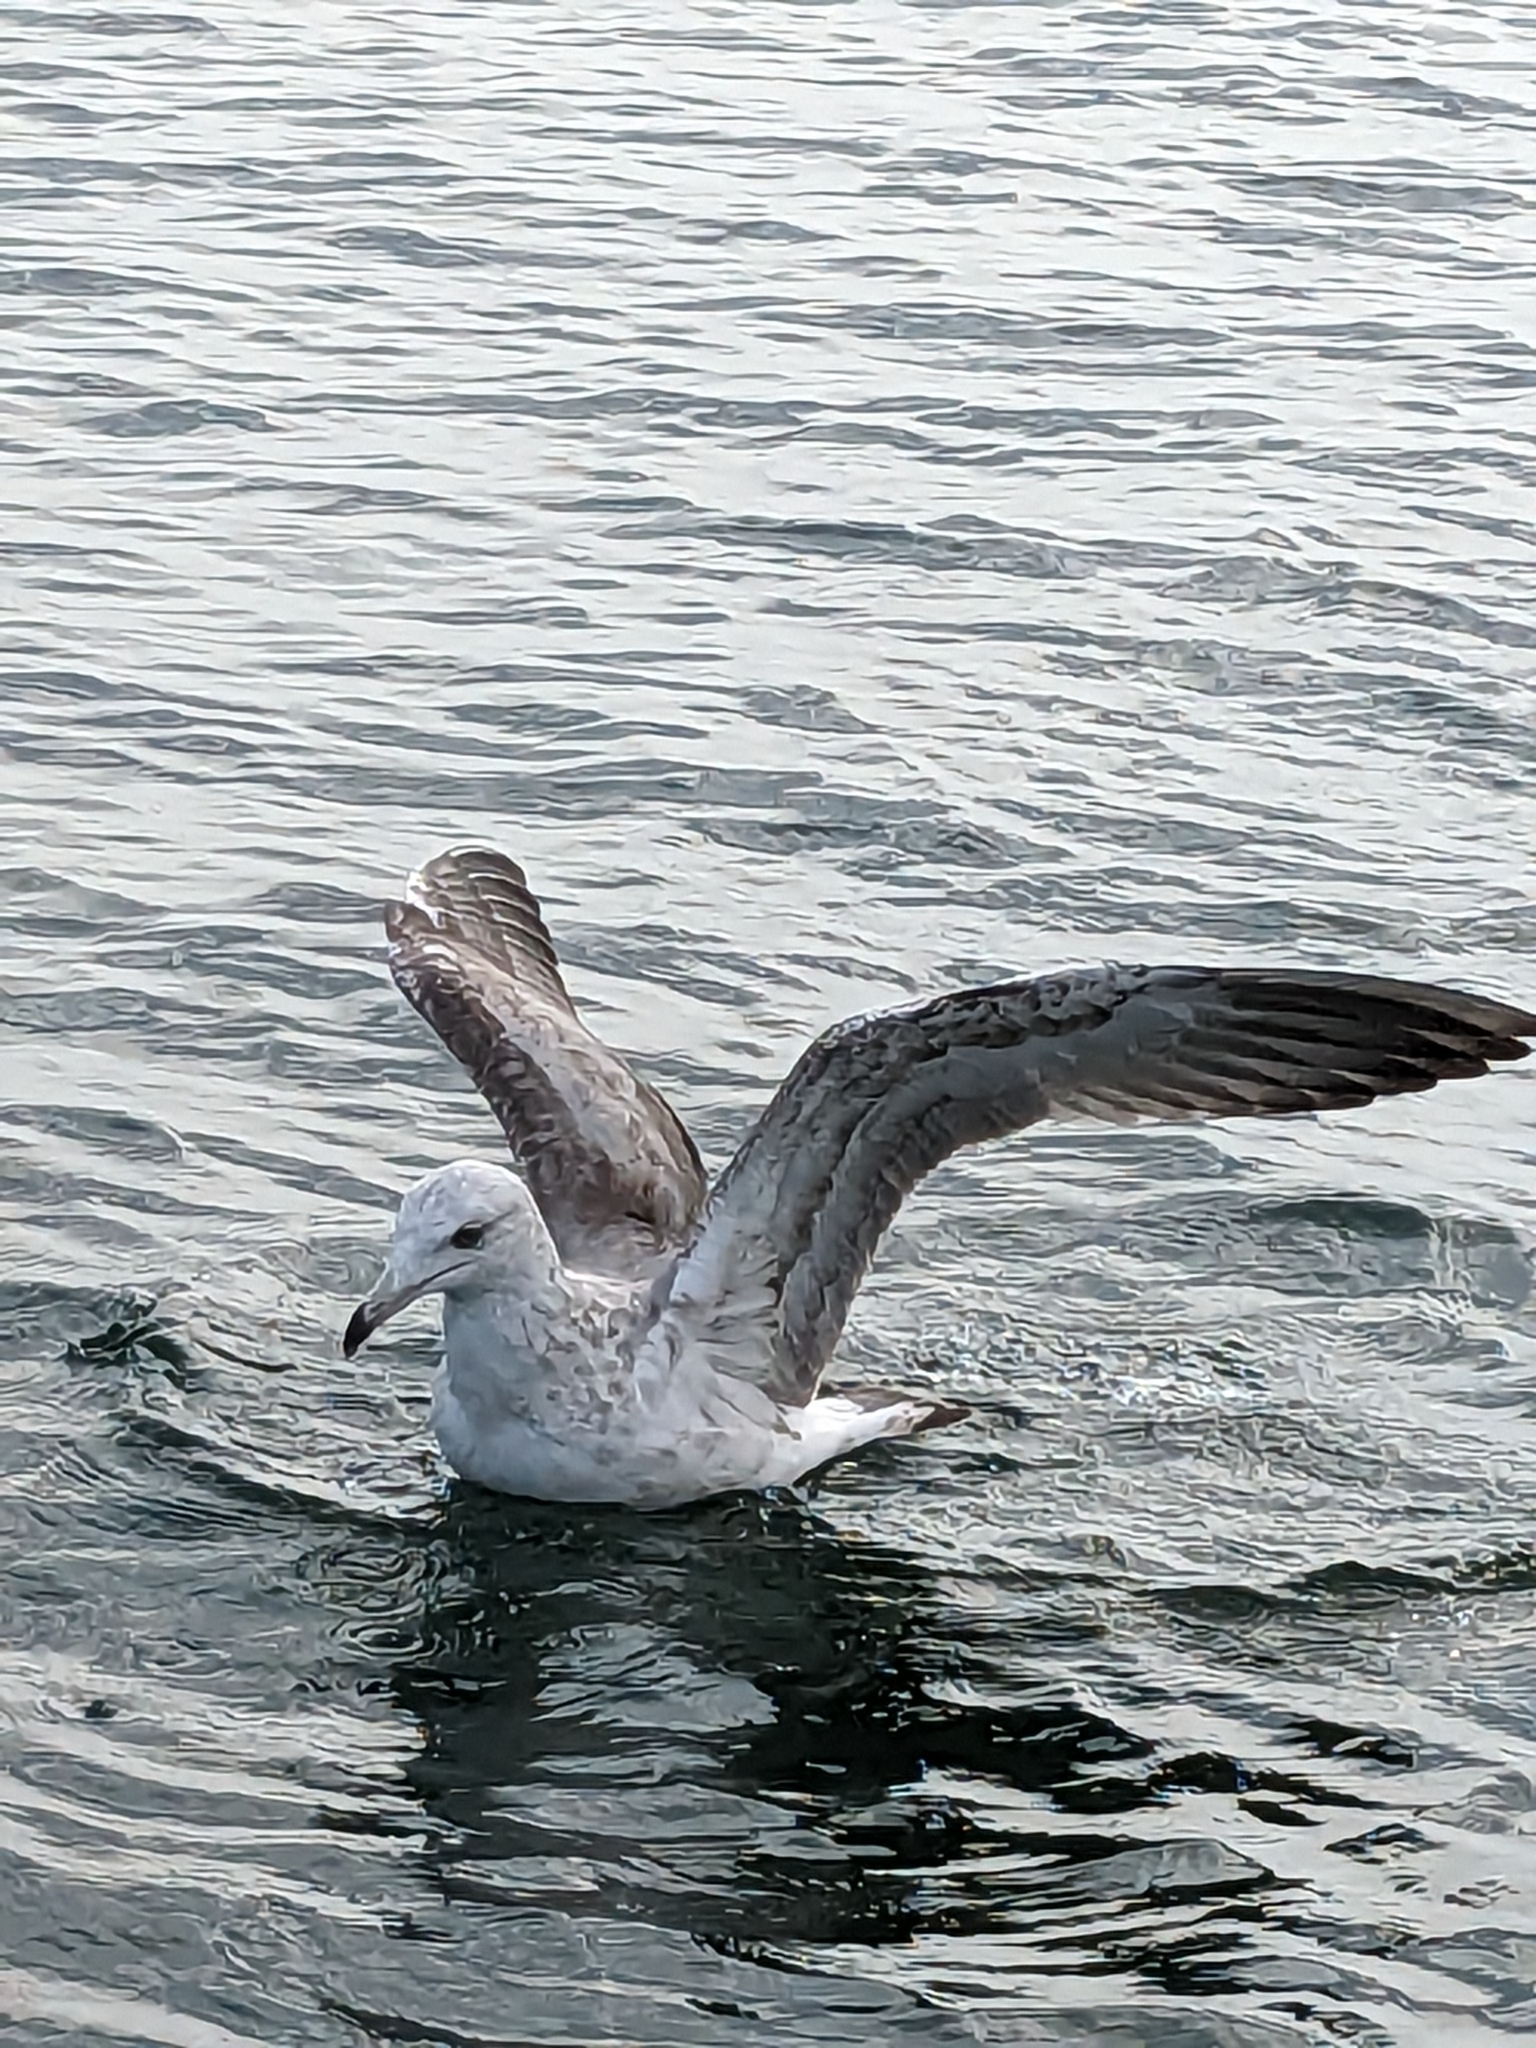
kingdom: Animalia
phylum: Chordata
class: Aves
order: Charadriiformes
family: Laridae
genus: Larus
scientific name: Larus smithsonianus
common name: American herring gull
